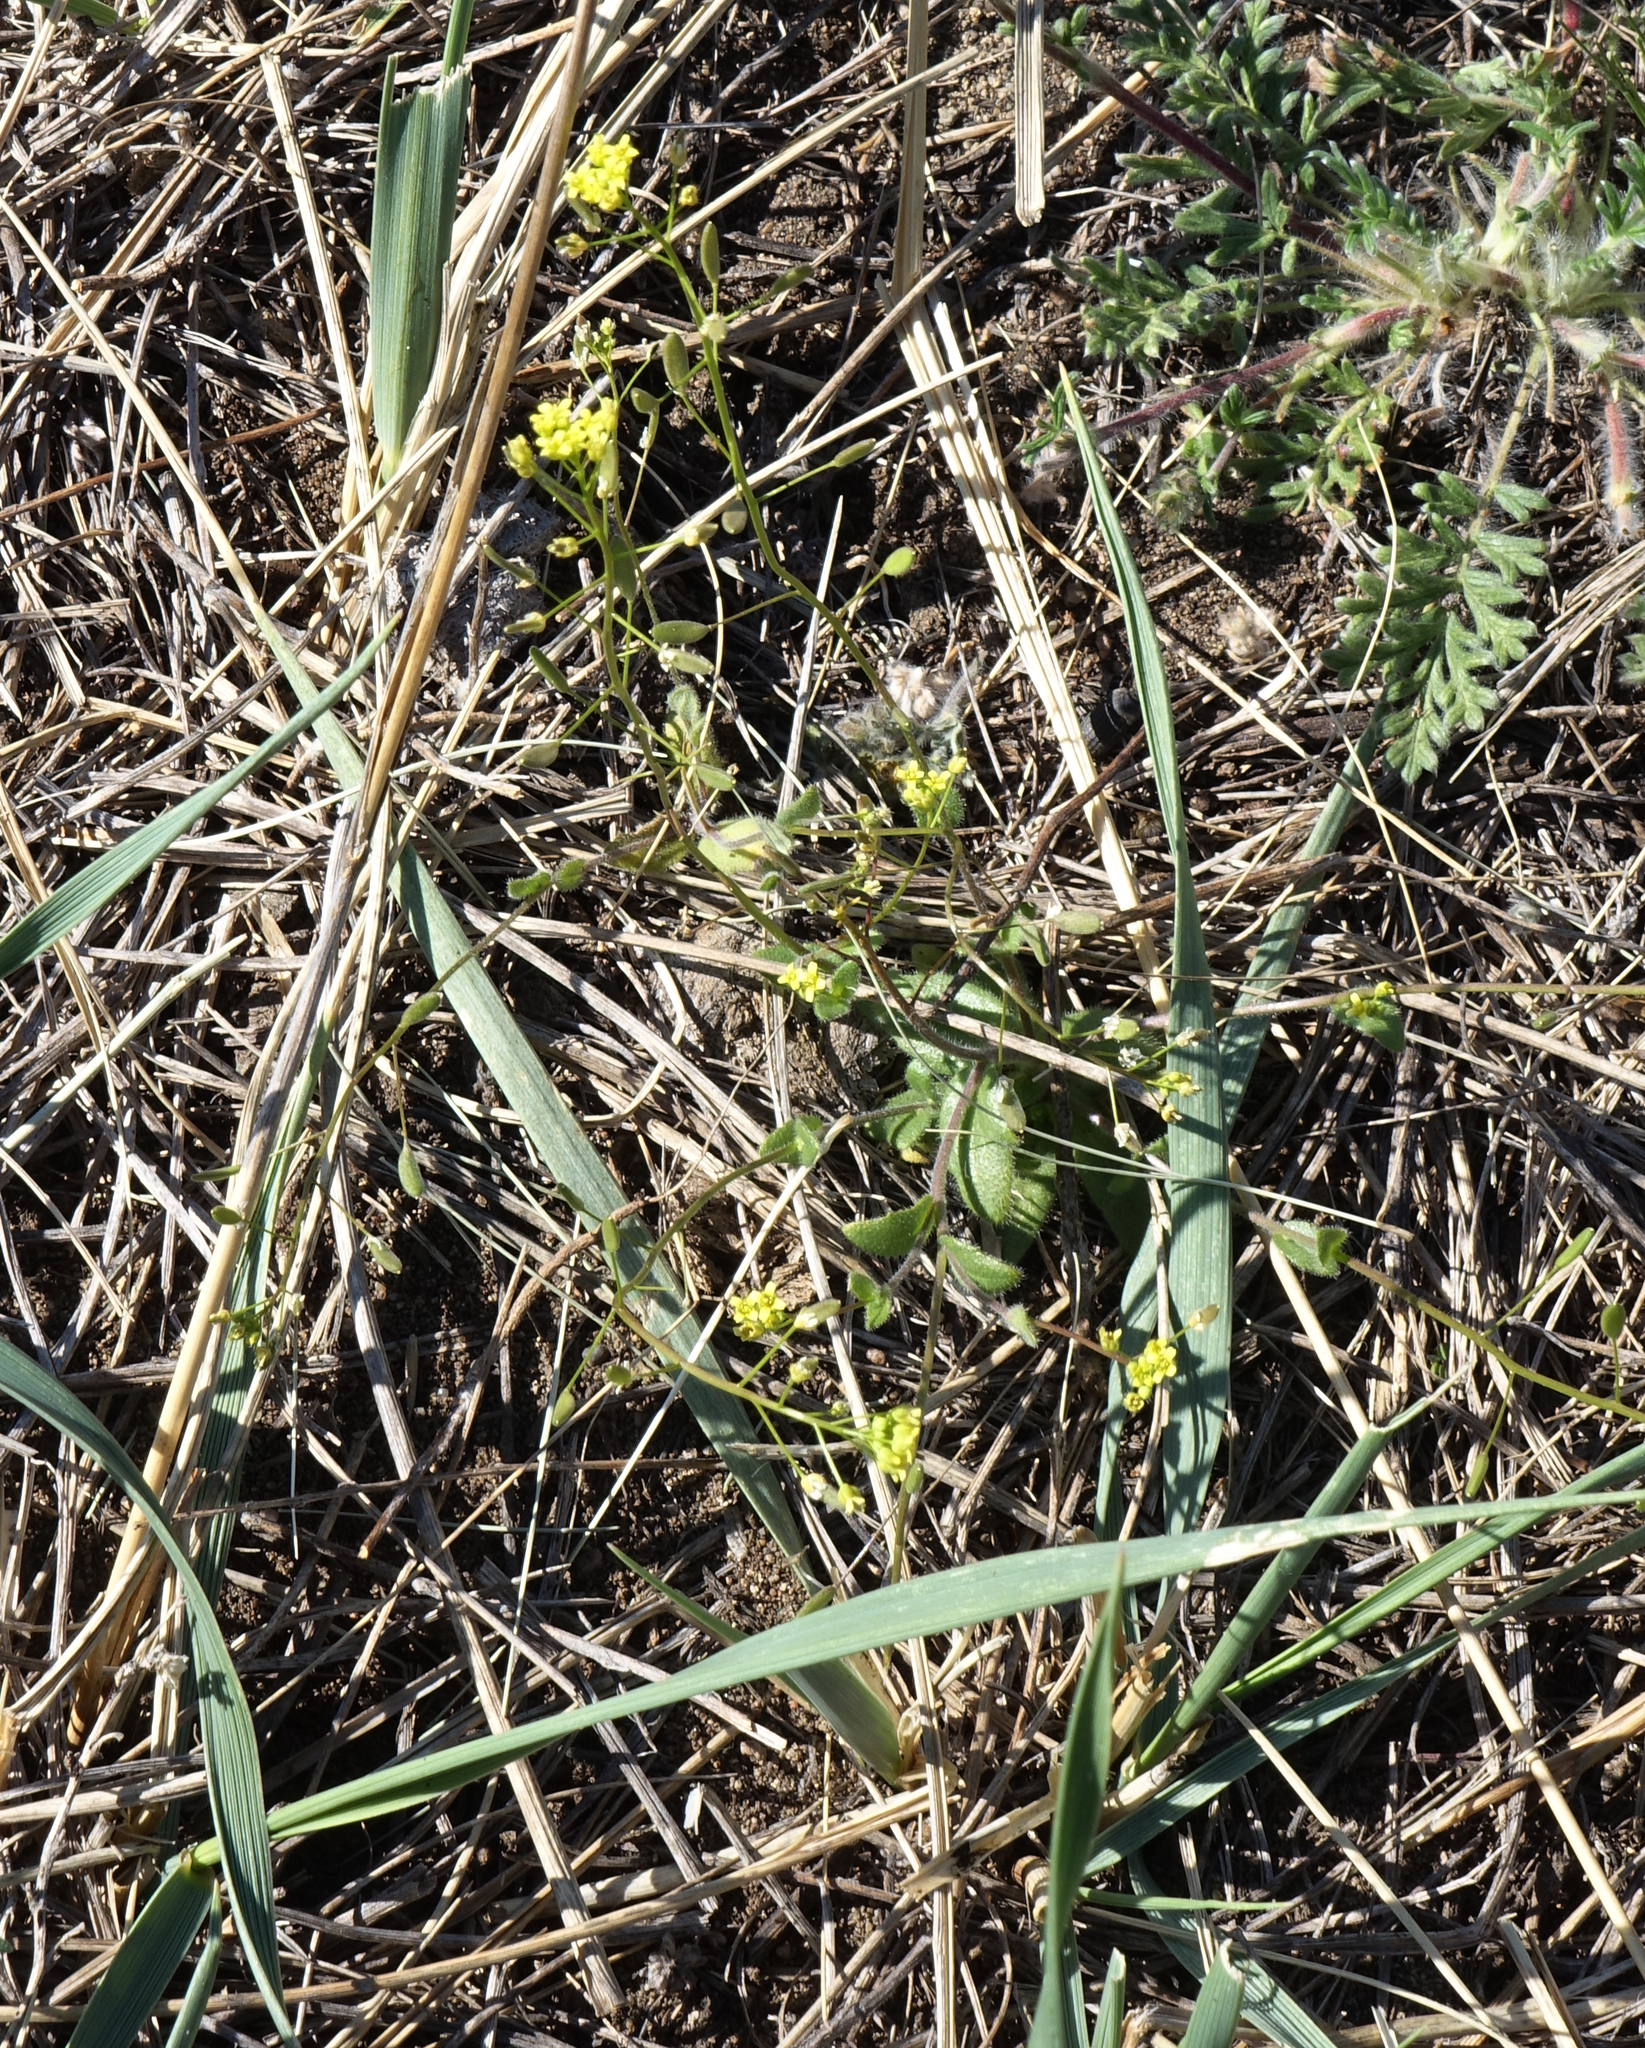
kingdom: Plantae
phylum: Tracheophyta
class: Magnoliopsida
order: Brassicales
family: Brassicaceae
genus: Draba
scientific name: Draba nemorosa
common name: Wood whitlow-grass
